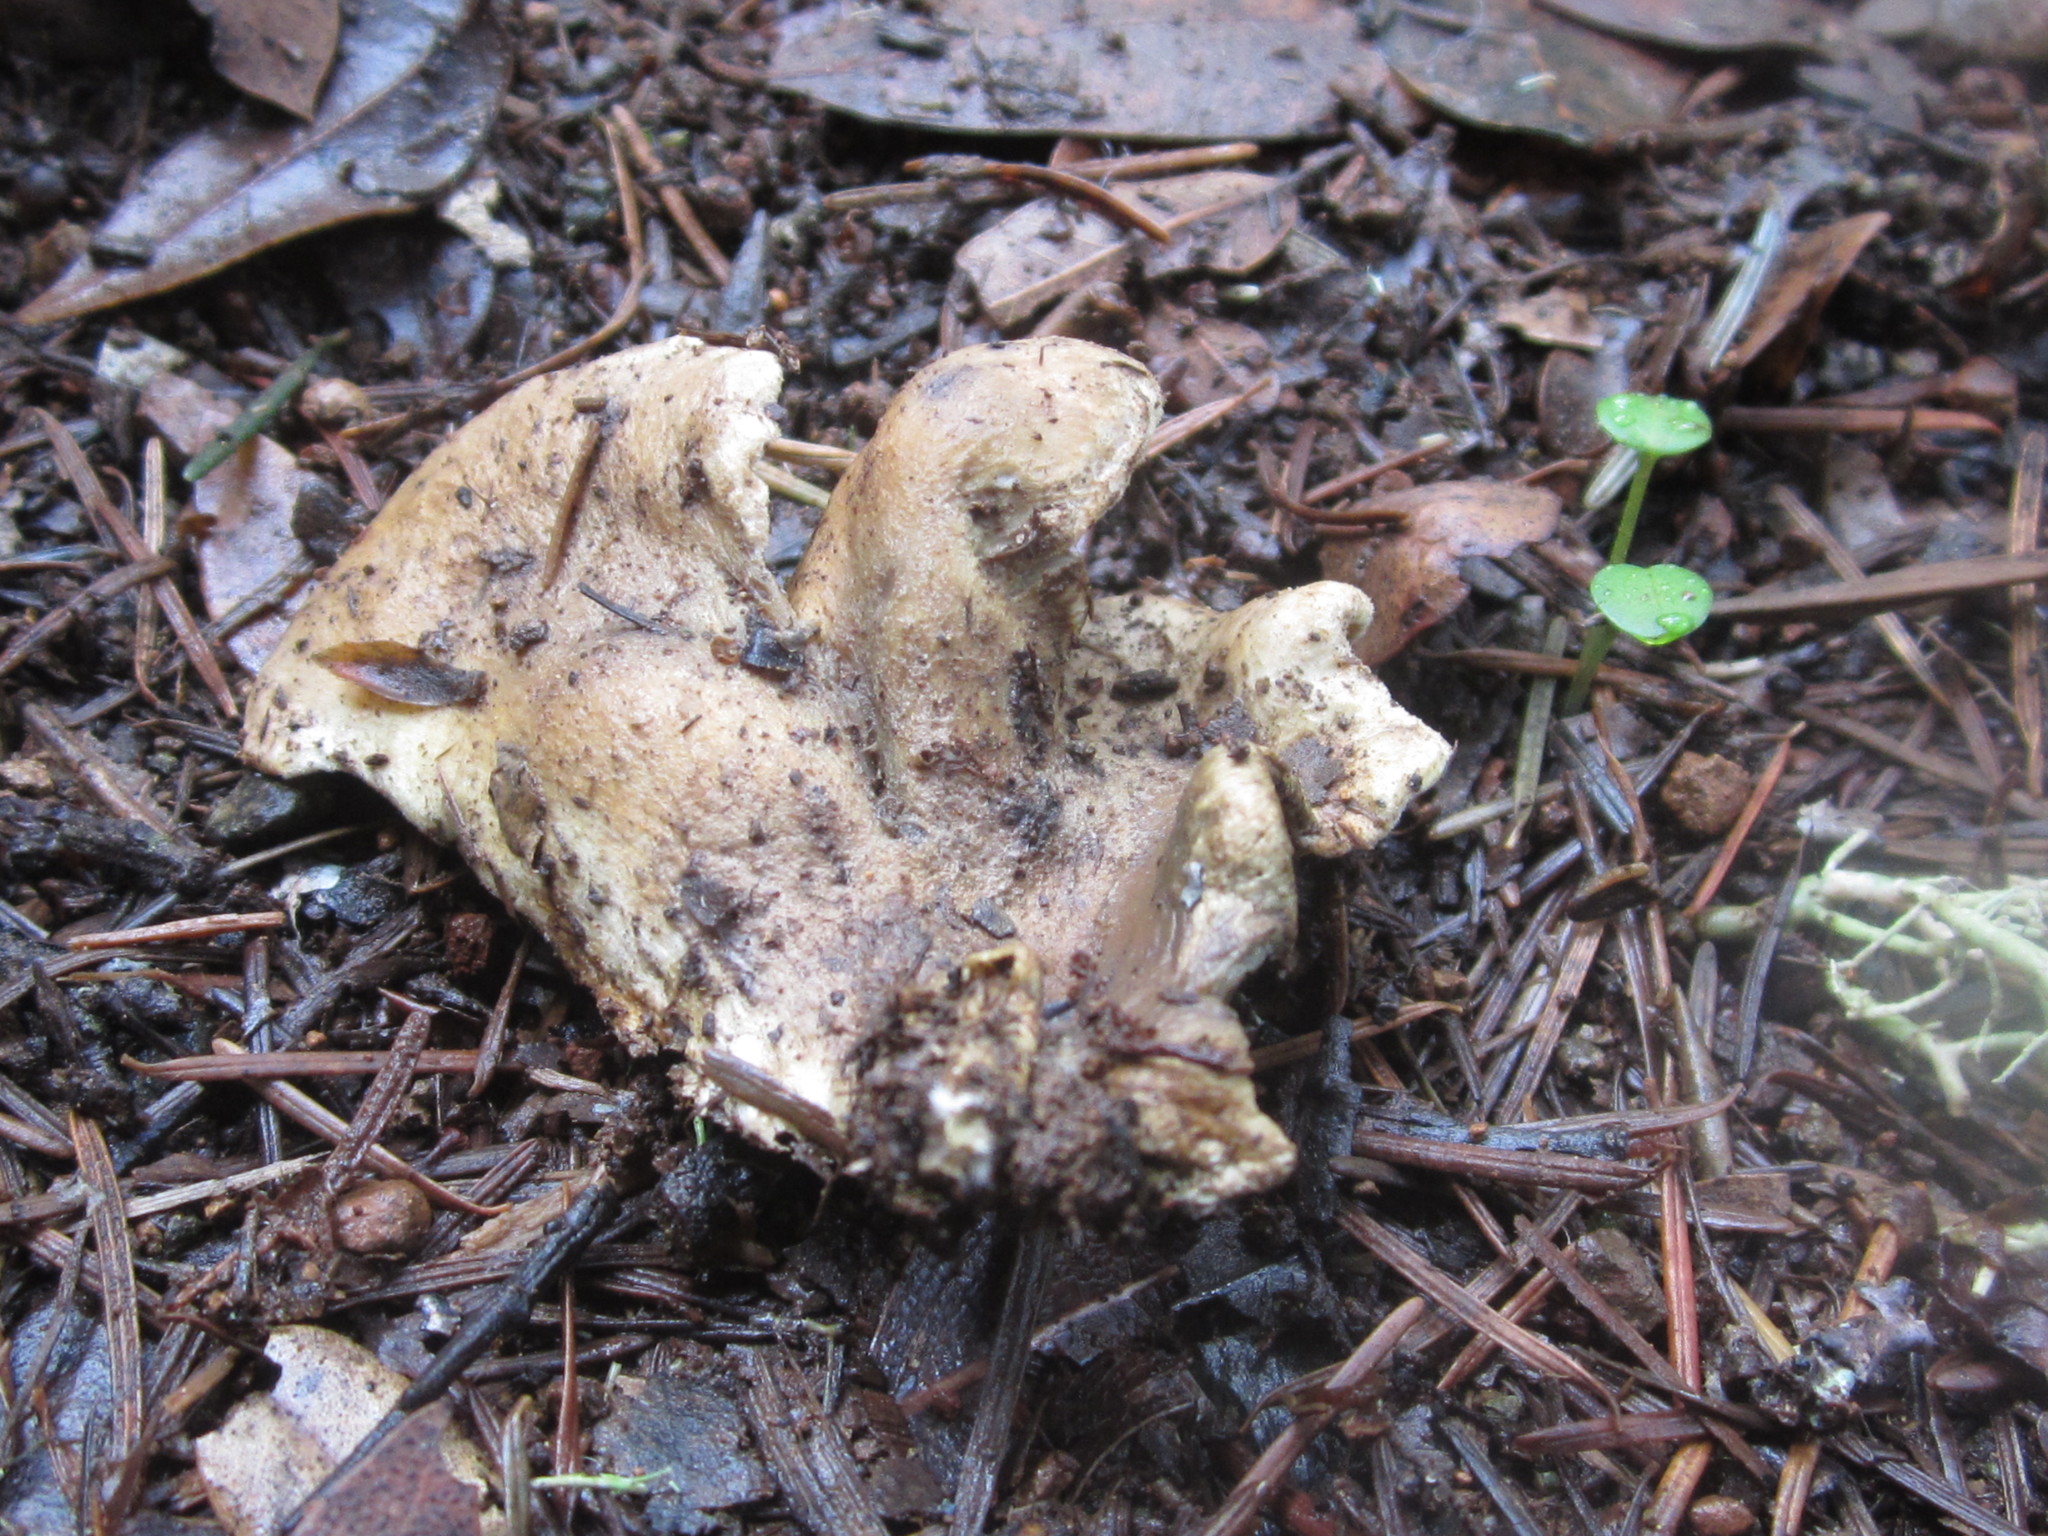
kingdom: Fungi
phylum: Basidiomycota
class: Agaricomycetes
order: Boletales
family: Tapinellaceae
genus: Tapinella
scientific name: Tapinella panuoides
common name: Oyster rollrim
